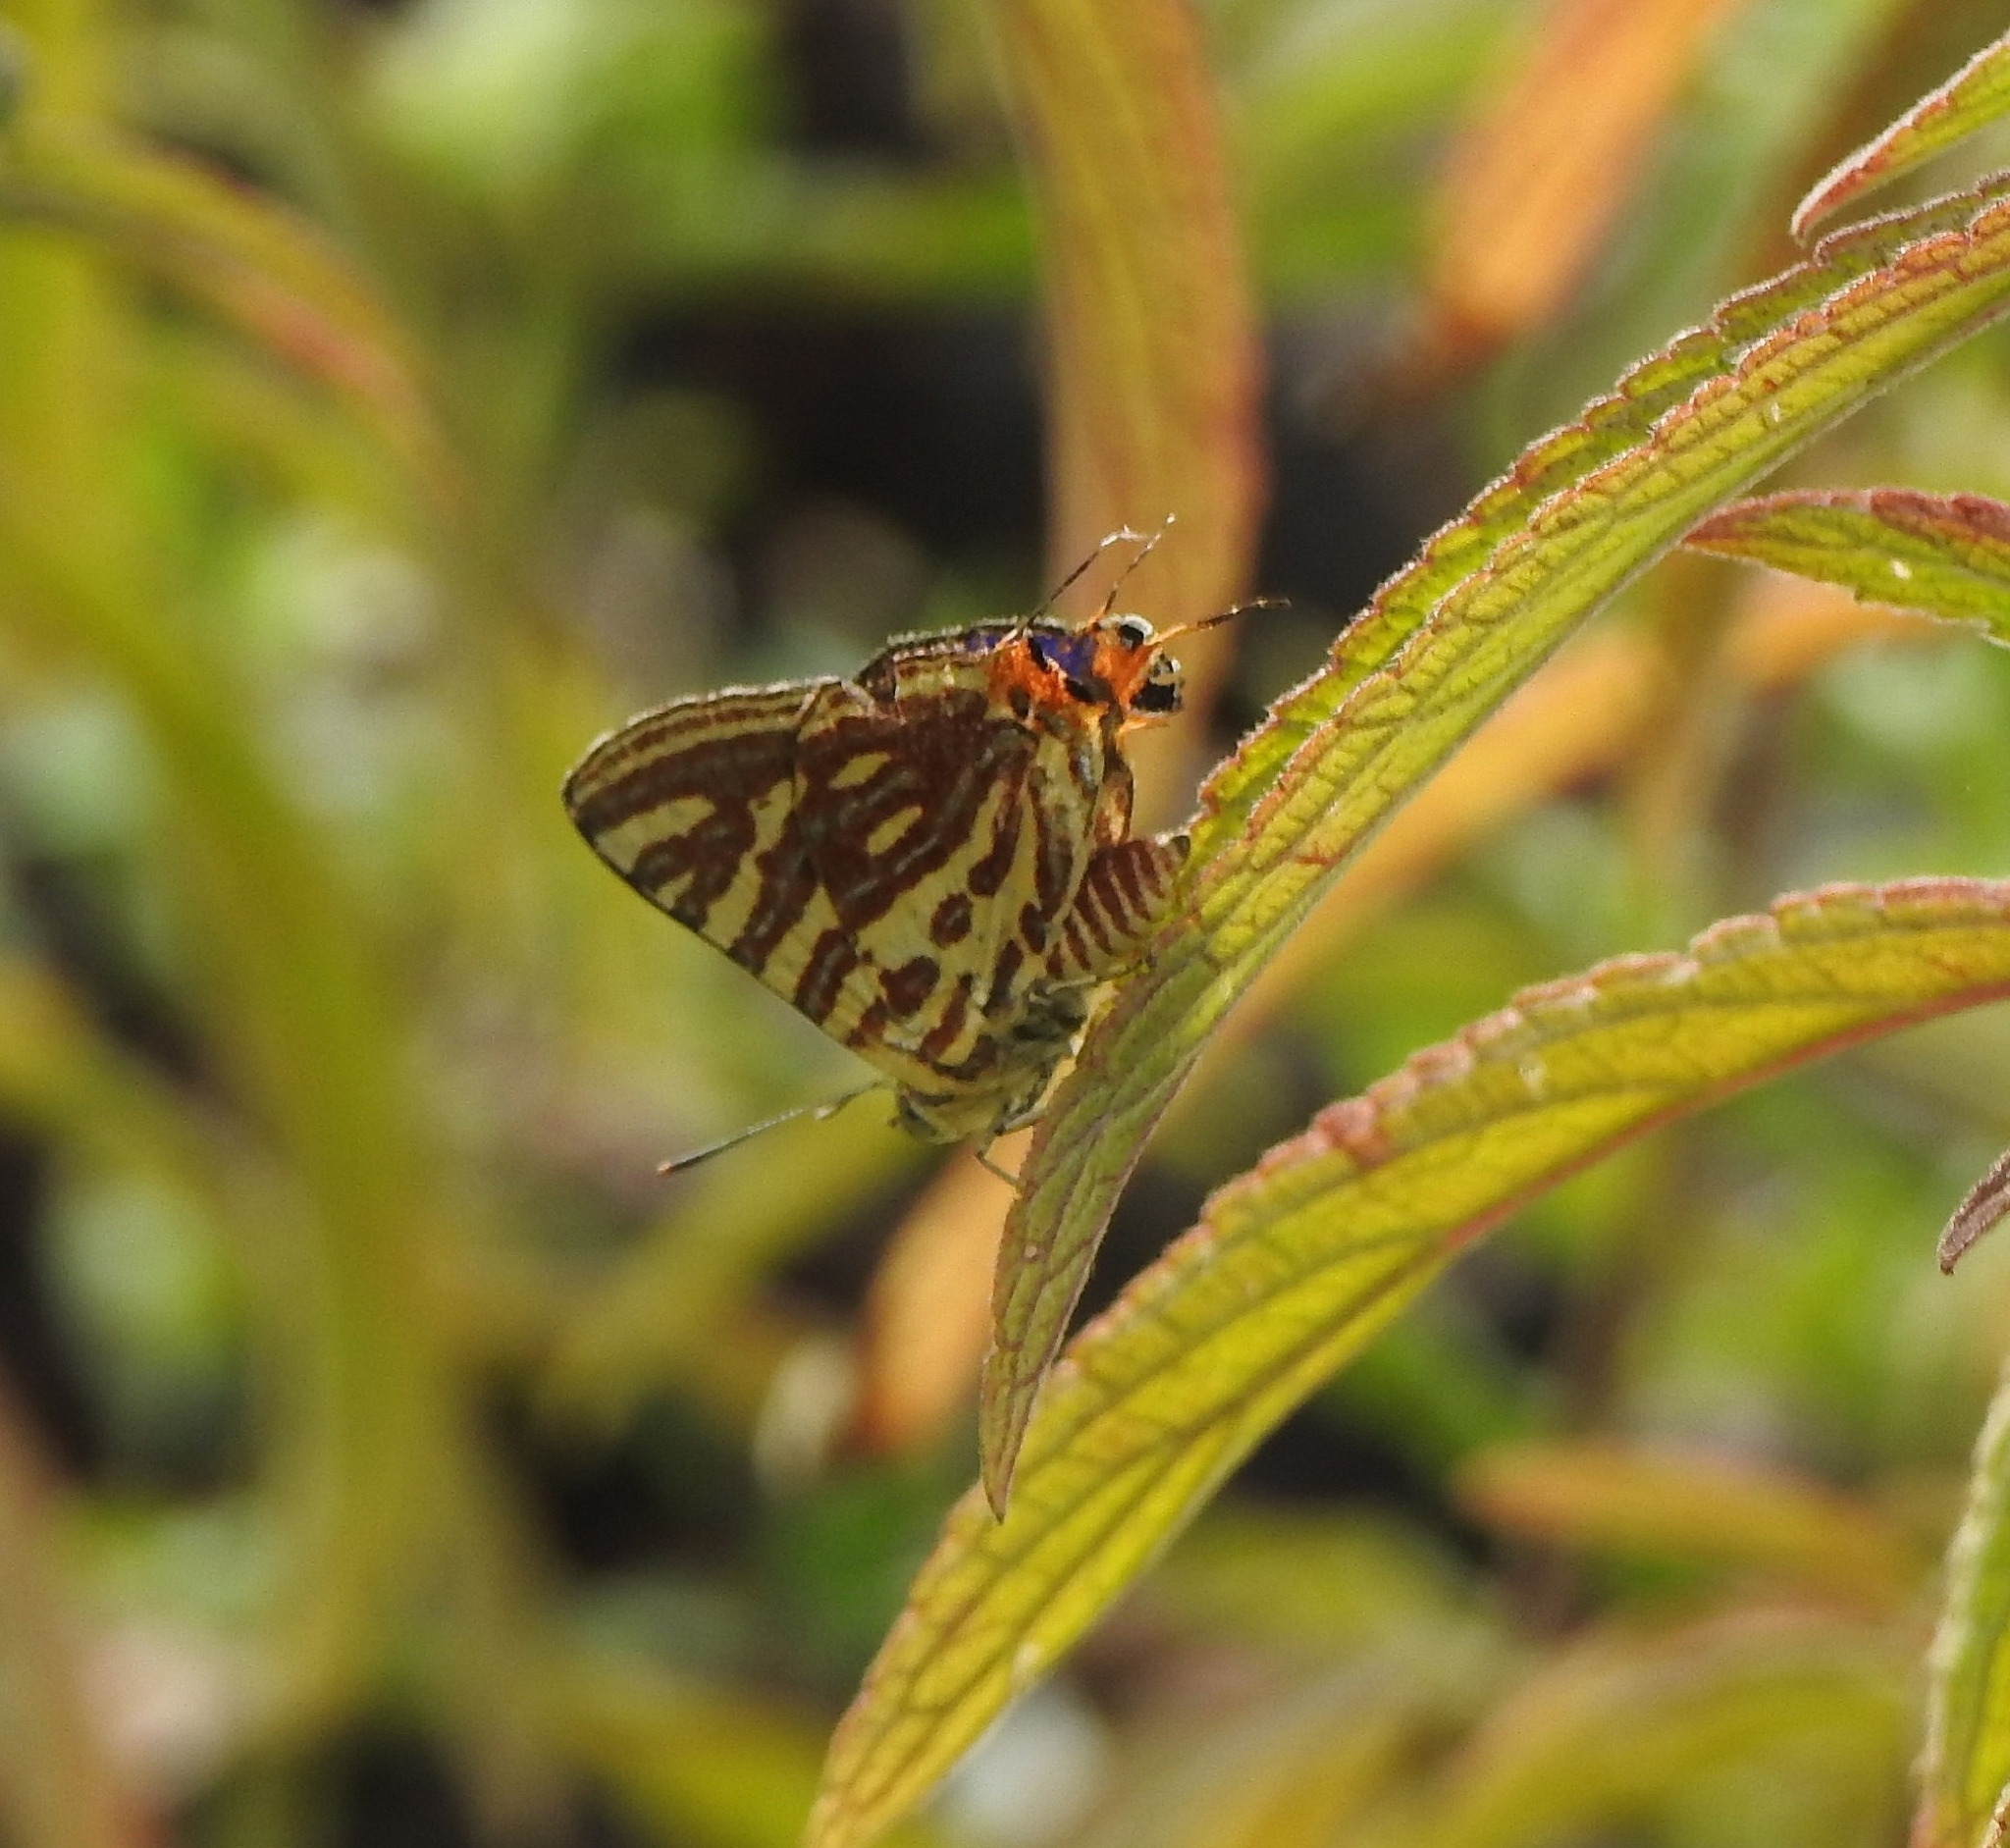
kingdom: Animalia
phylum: Arthropoda
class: Insecta
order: Lepidoptera
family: Lycaenidae
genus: Cigaritis
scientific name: Cigaritis lohita
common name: Long-banded silverline
